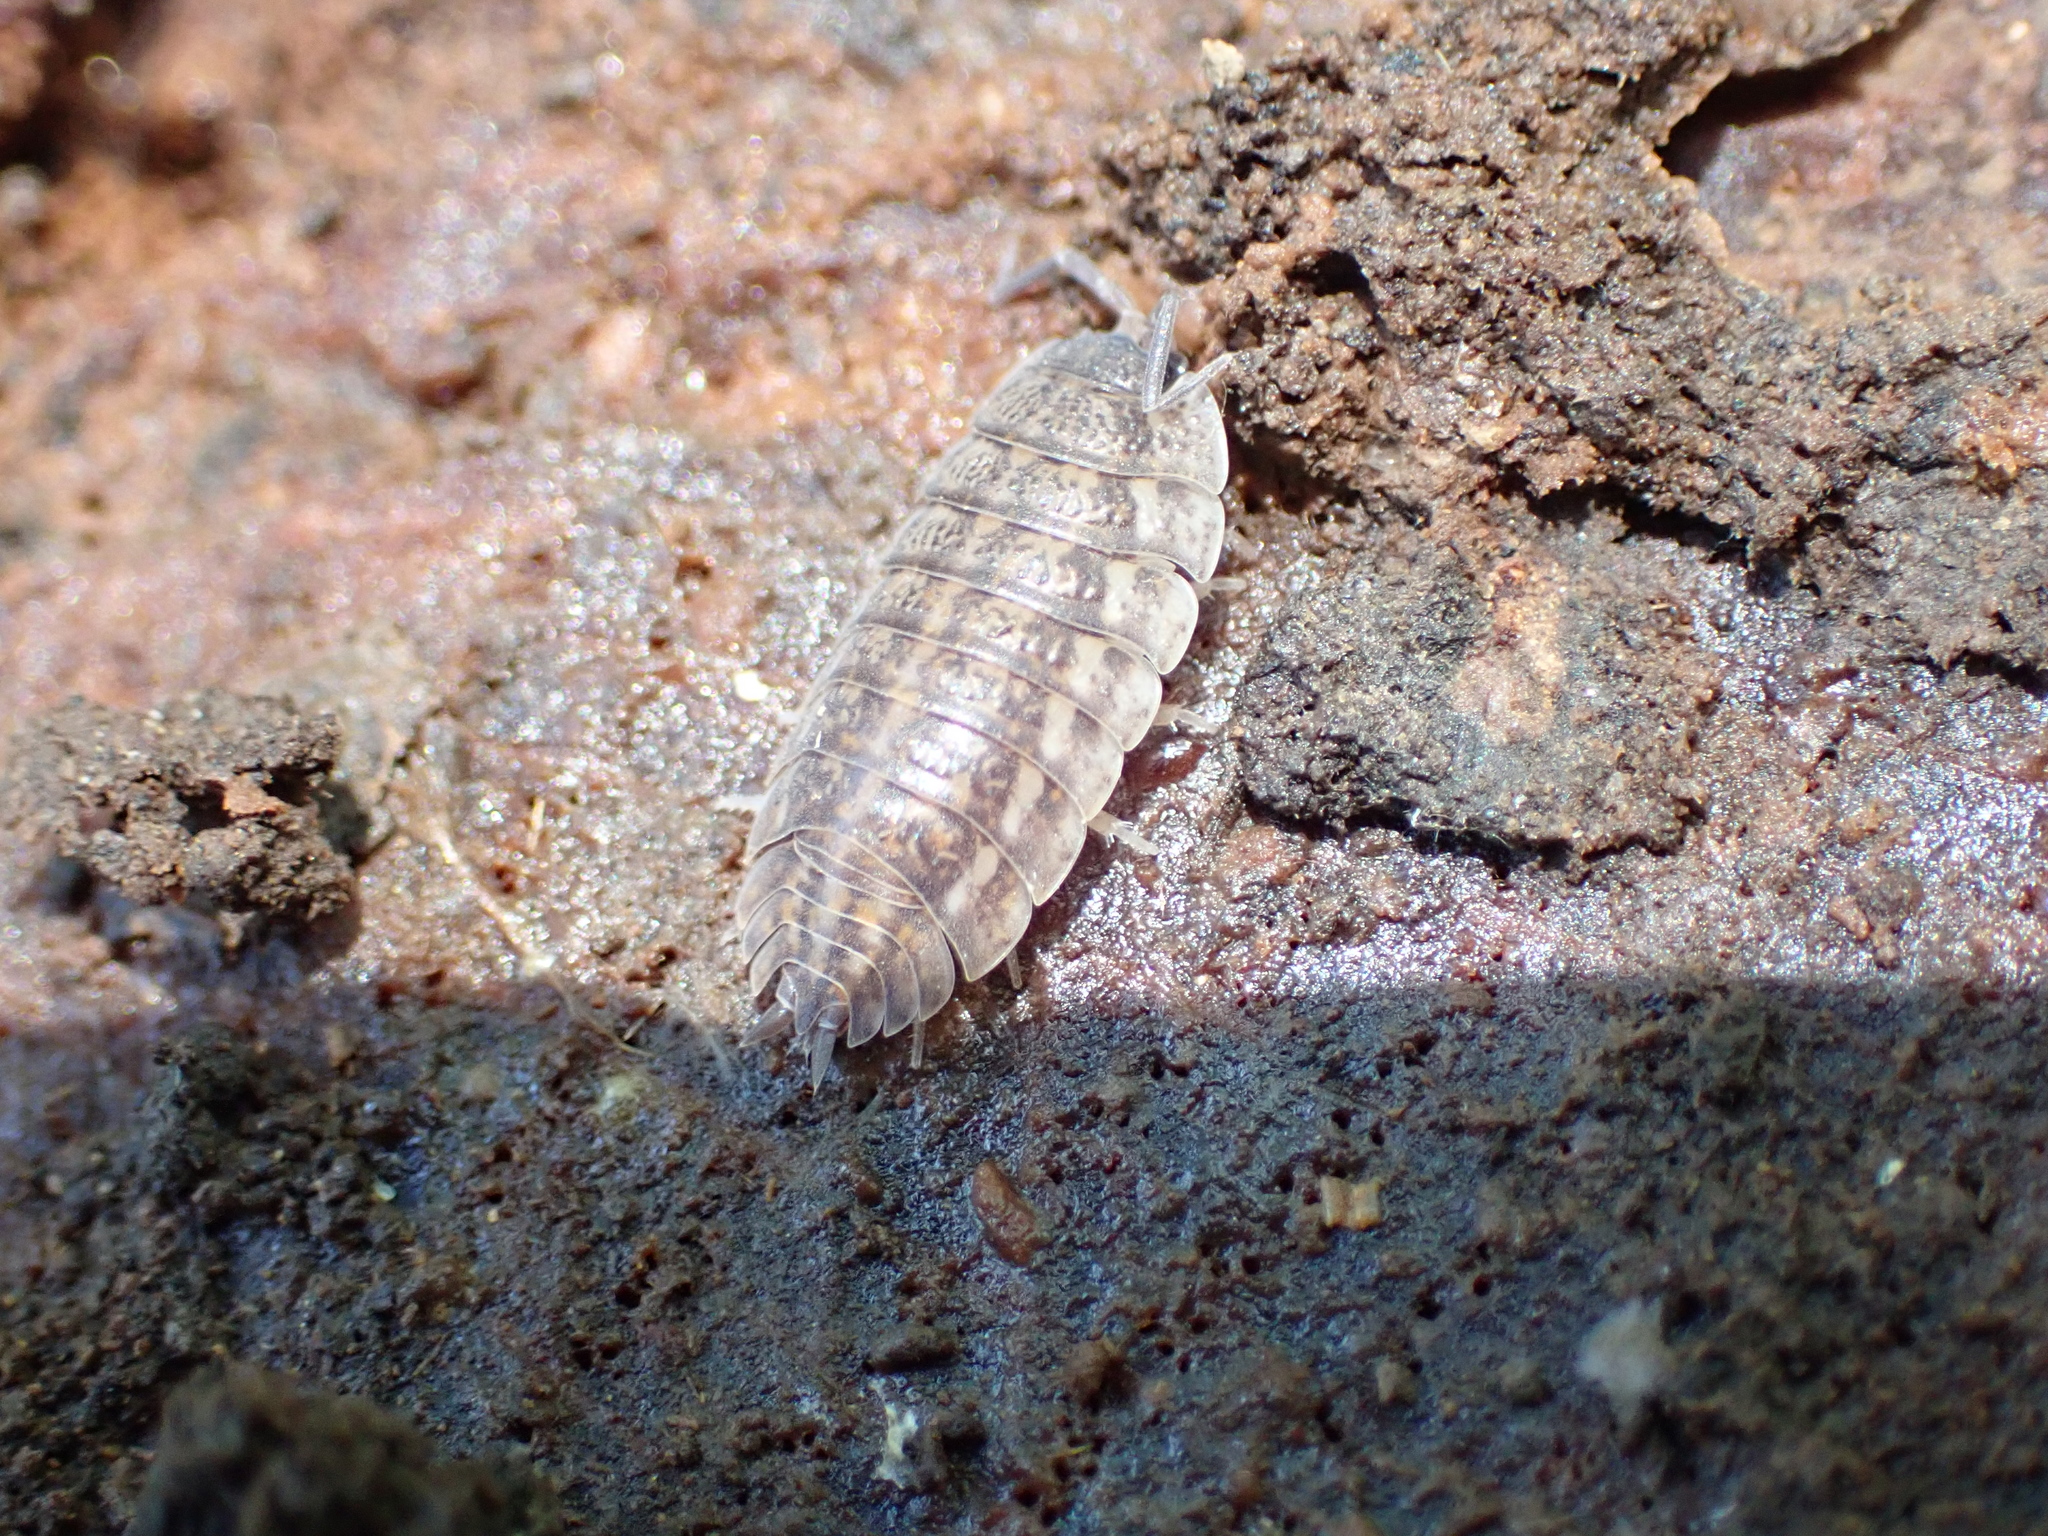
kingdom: Animalia
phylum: Arthropoda
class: Malacostraca
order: Isopoda
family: Trachelipodidae
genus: Trachelipus
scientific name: Trachelipus rathkii
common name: Isopod
